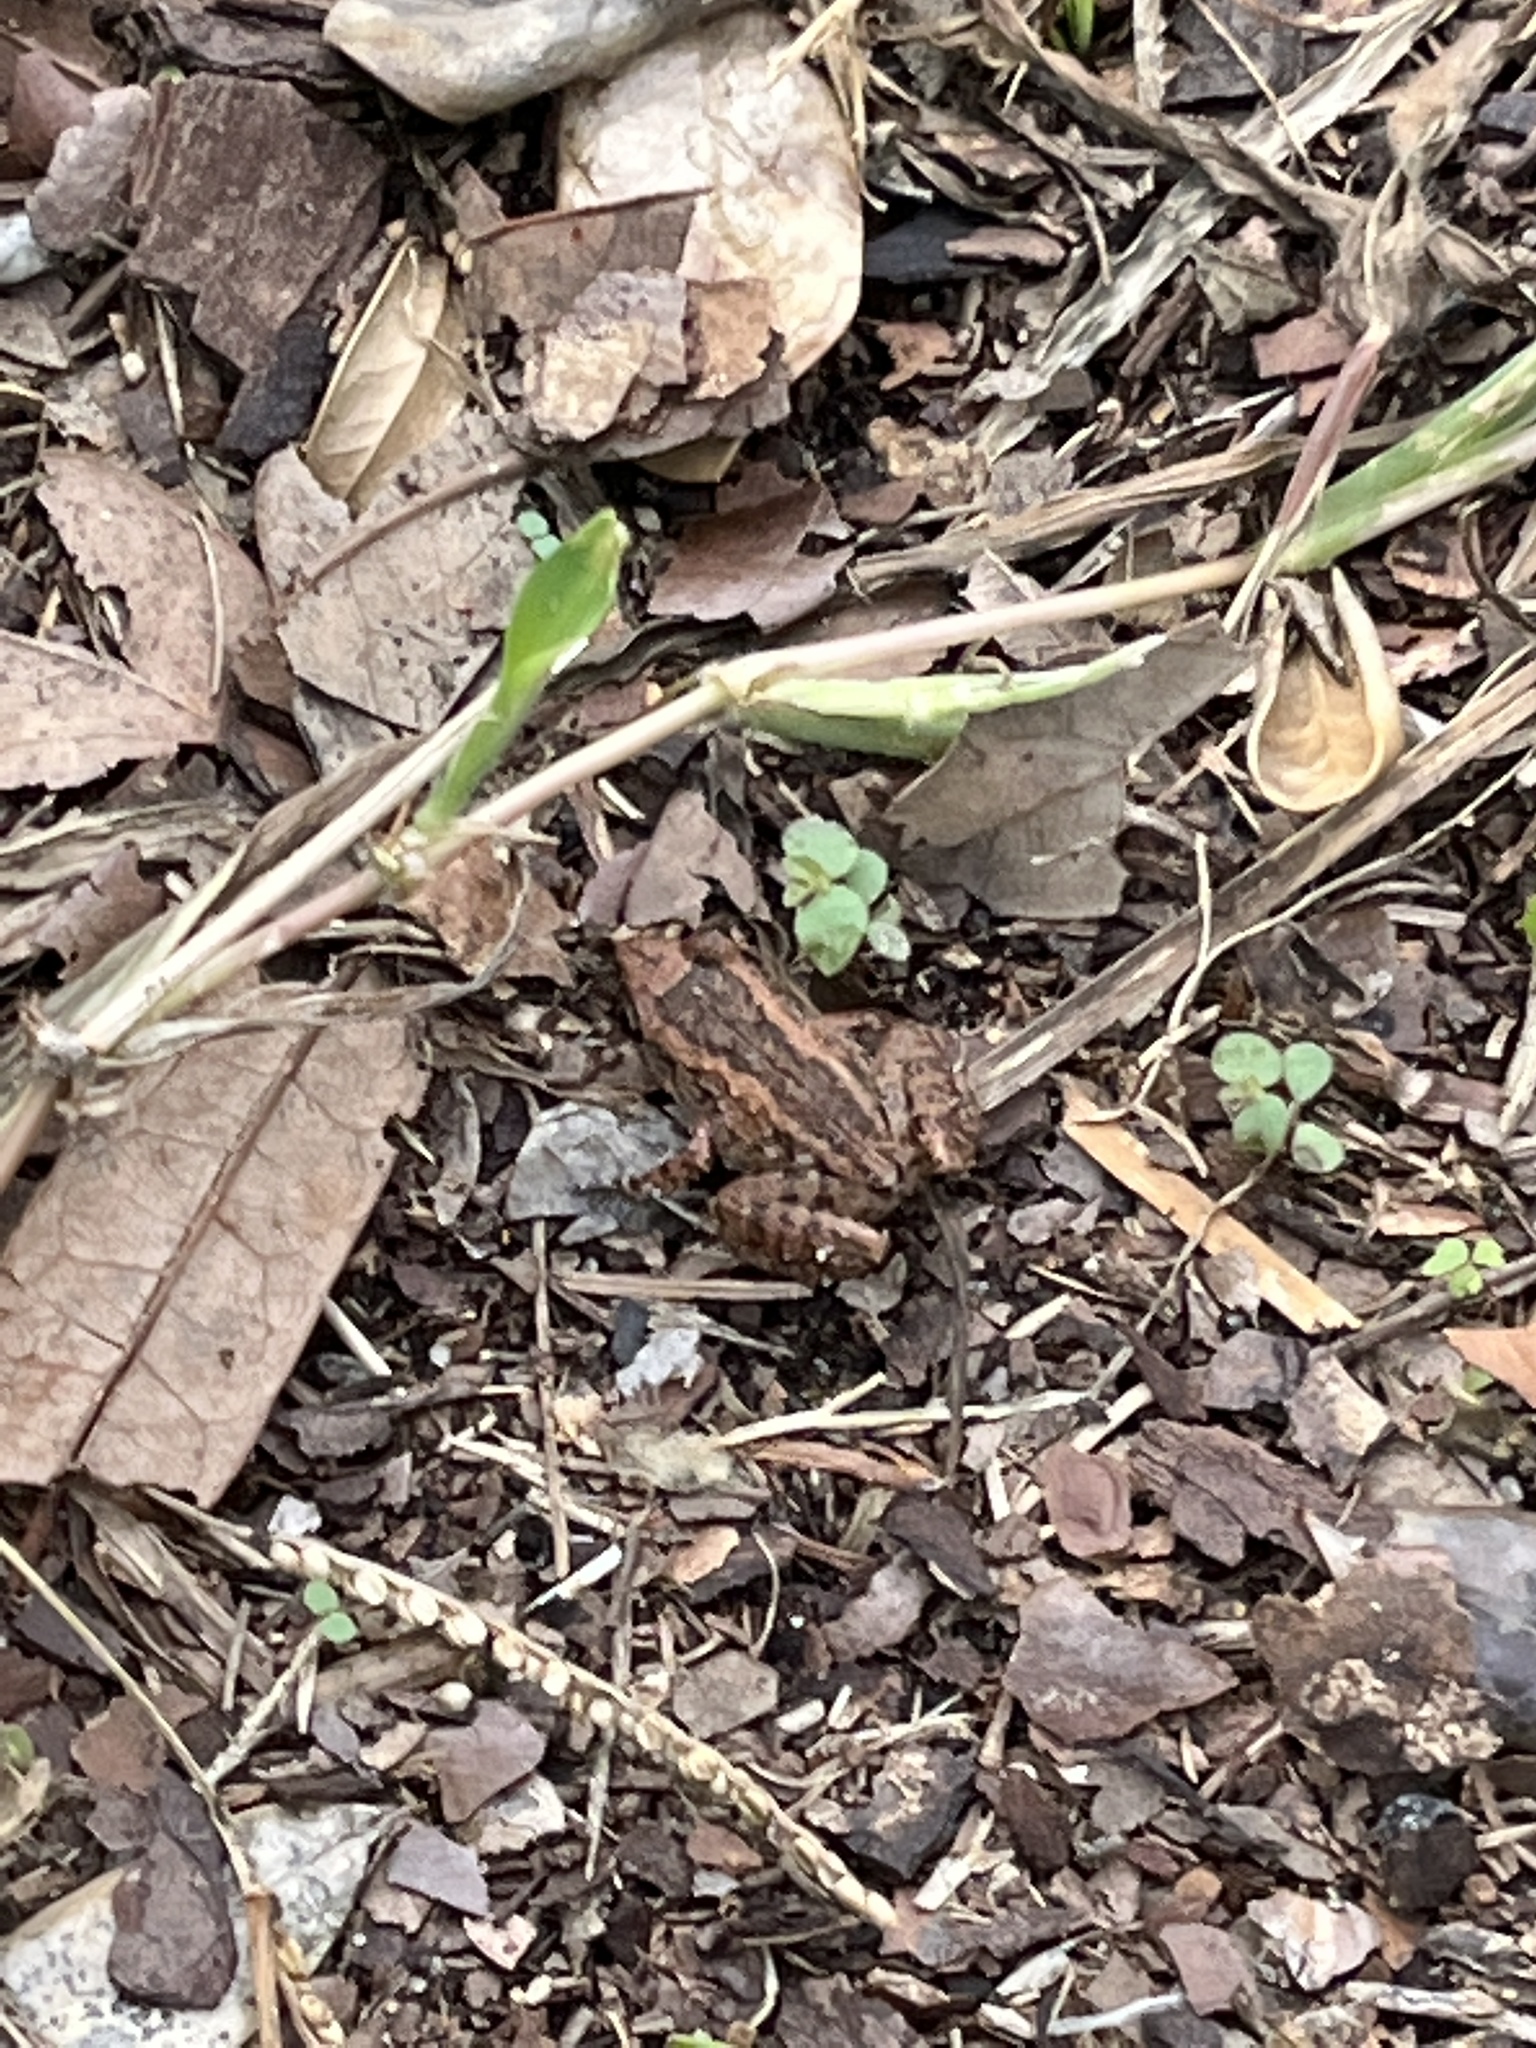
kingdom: Animalia
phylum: Chordata
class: Amphibia
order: Anura
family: Eleutherodactylidae
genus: Eleutherodactylus
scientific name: Eleutherodactylus planirostris
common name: Greenhouse frog
